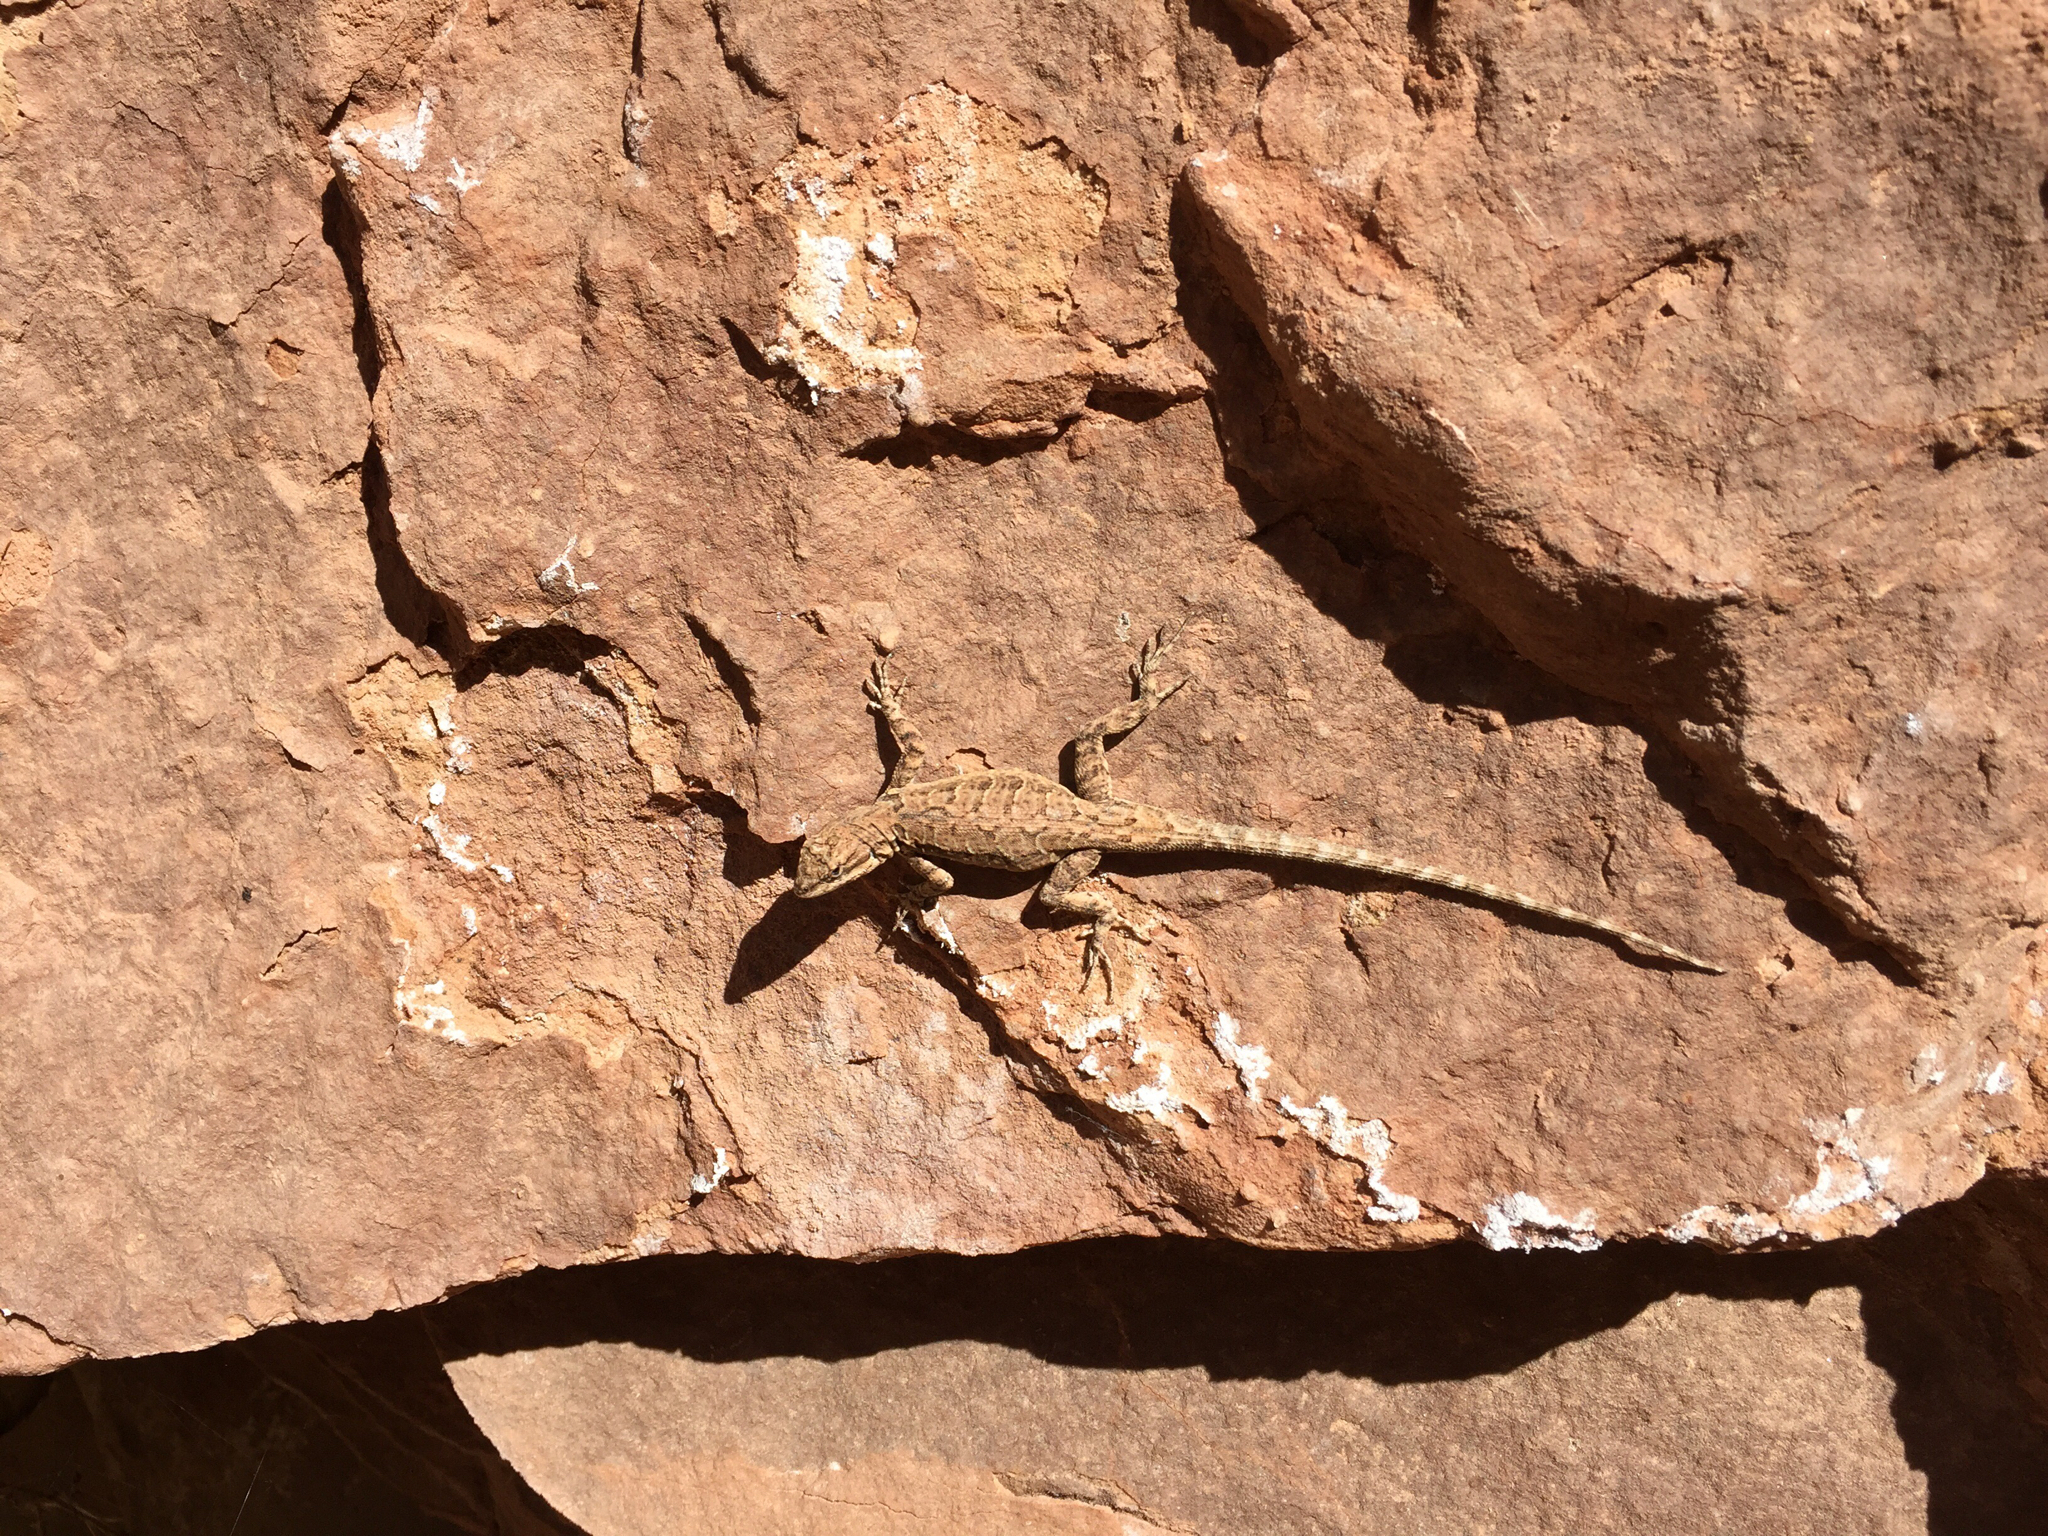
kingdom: Animalia
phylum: Chordata
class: Squamata
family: Phrynosomatidae
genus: Urosaurus
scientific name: Urosaurus ornatus
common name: Ornate tree lizard
